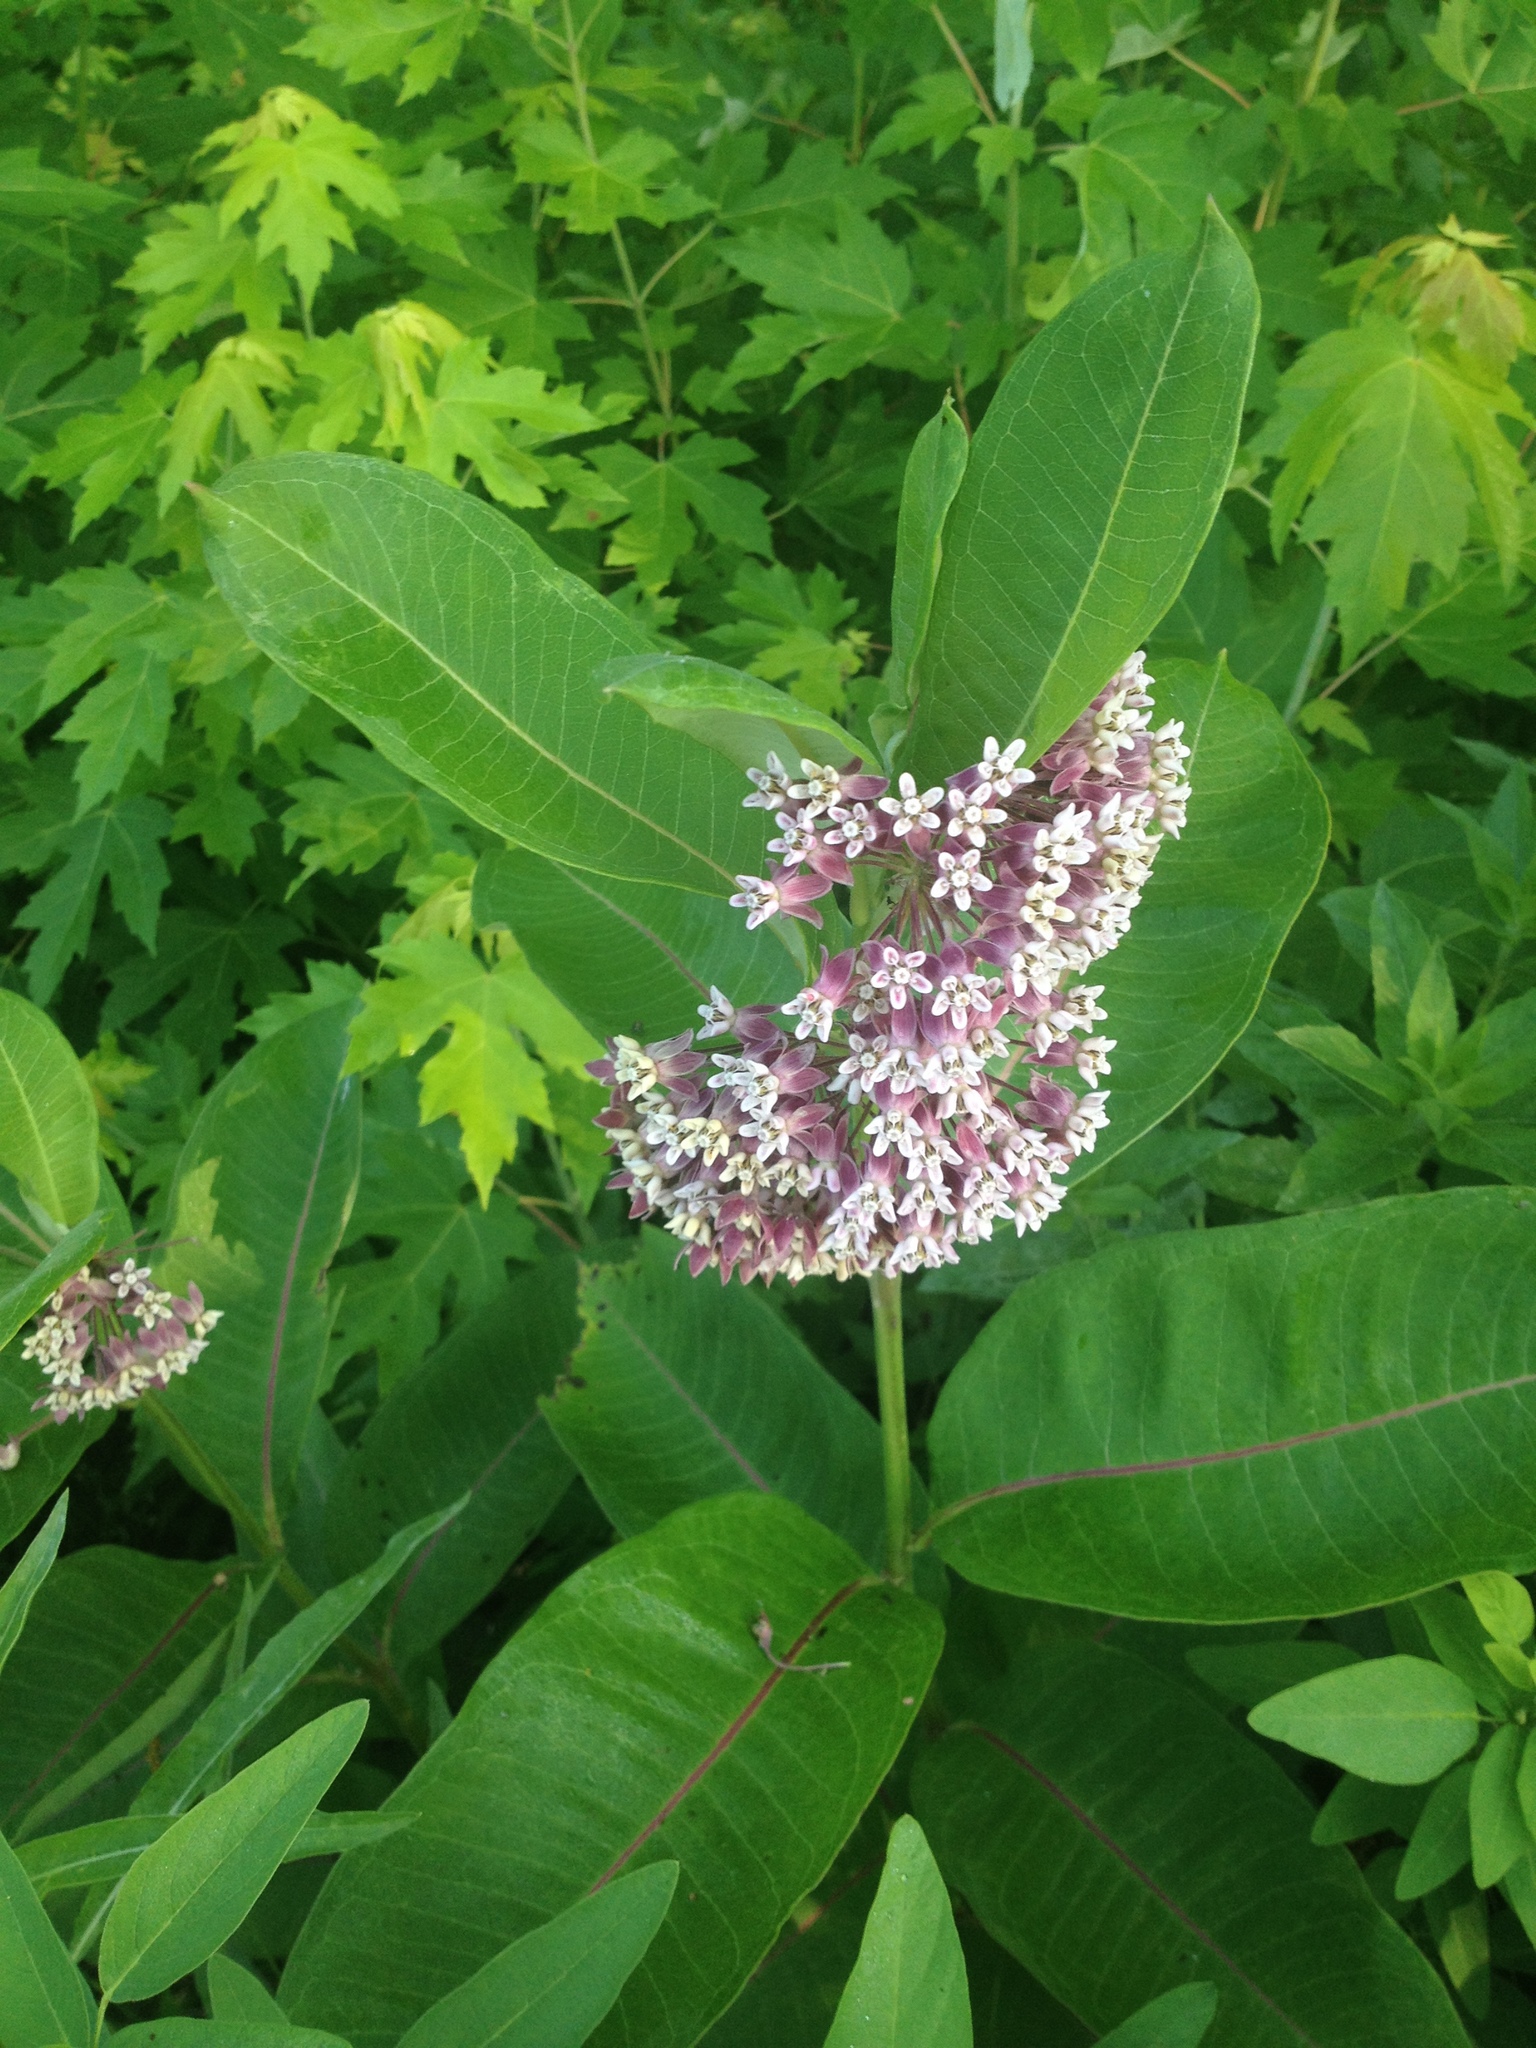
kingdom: Plantae
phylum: Tracheophyta
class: Magnoliopsida
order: Gentianales
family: Apocynaceae
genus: Asclepias
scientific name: Asclepias syriaca
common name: Common milkweed
